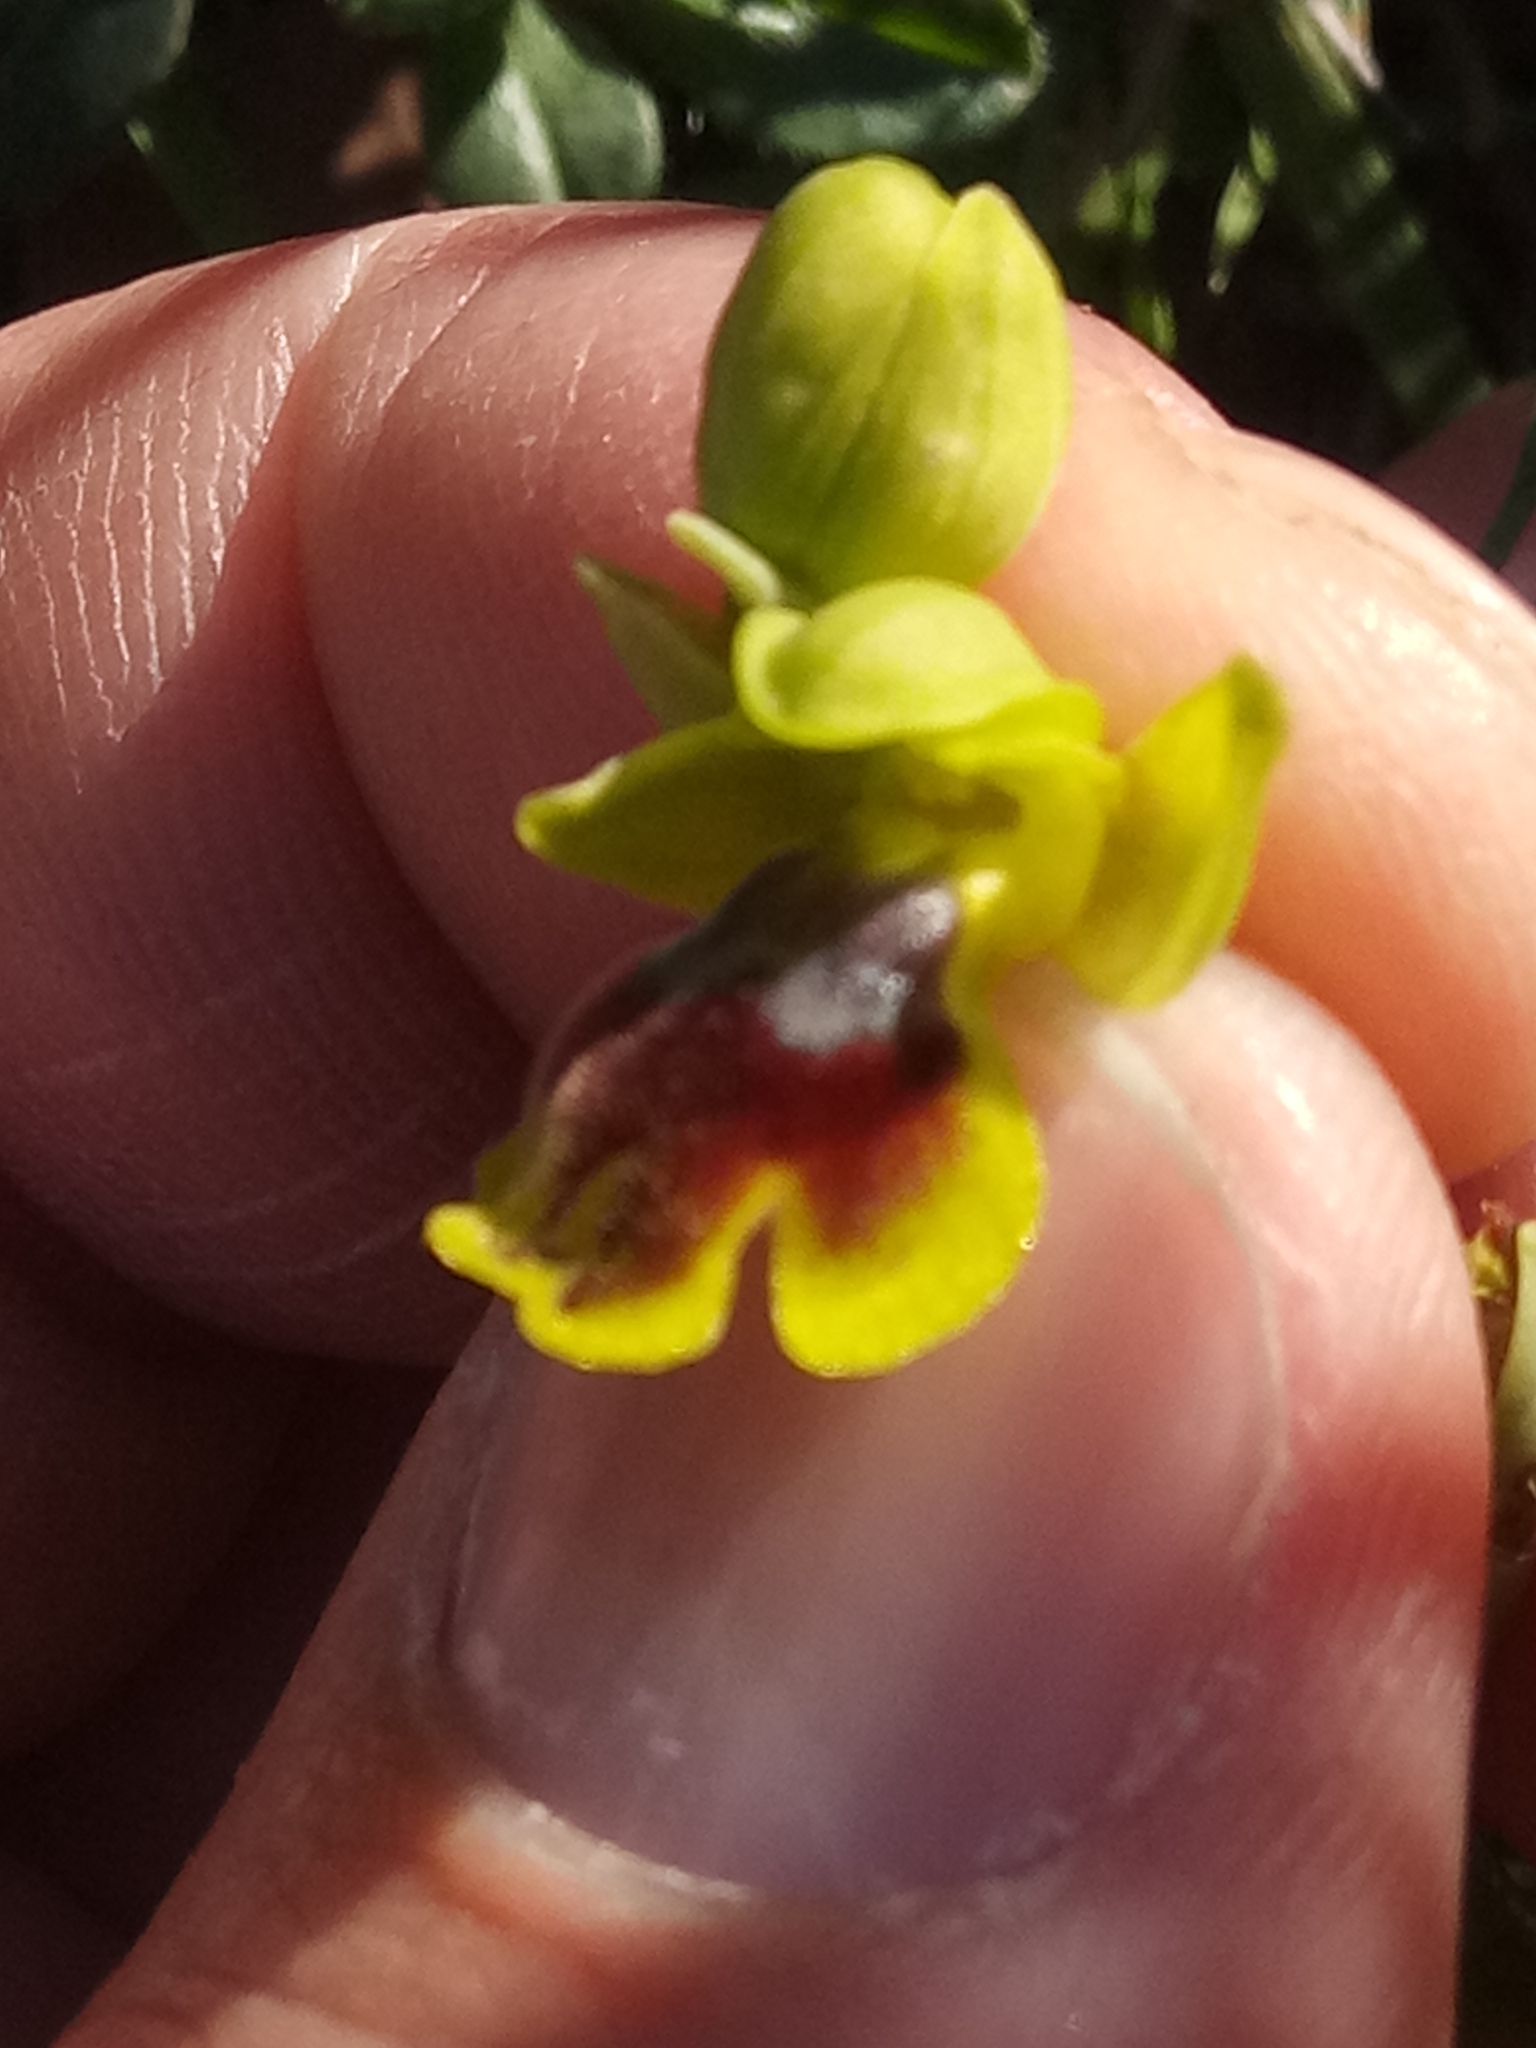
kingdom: Plantae
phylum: Tracheophyta
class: Liliopsida
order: Asparagales
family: Orchidaceae
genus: Ophrys
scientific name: Ophrys battandieri
